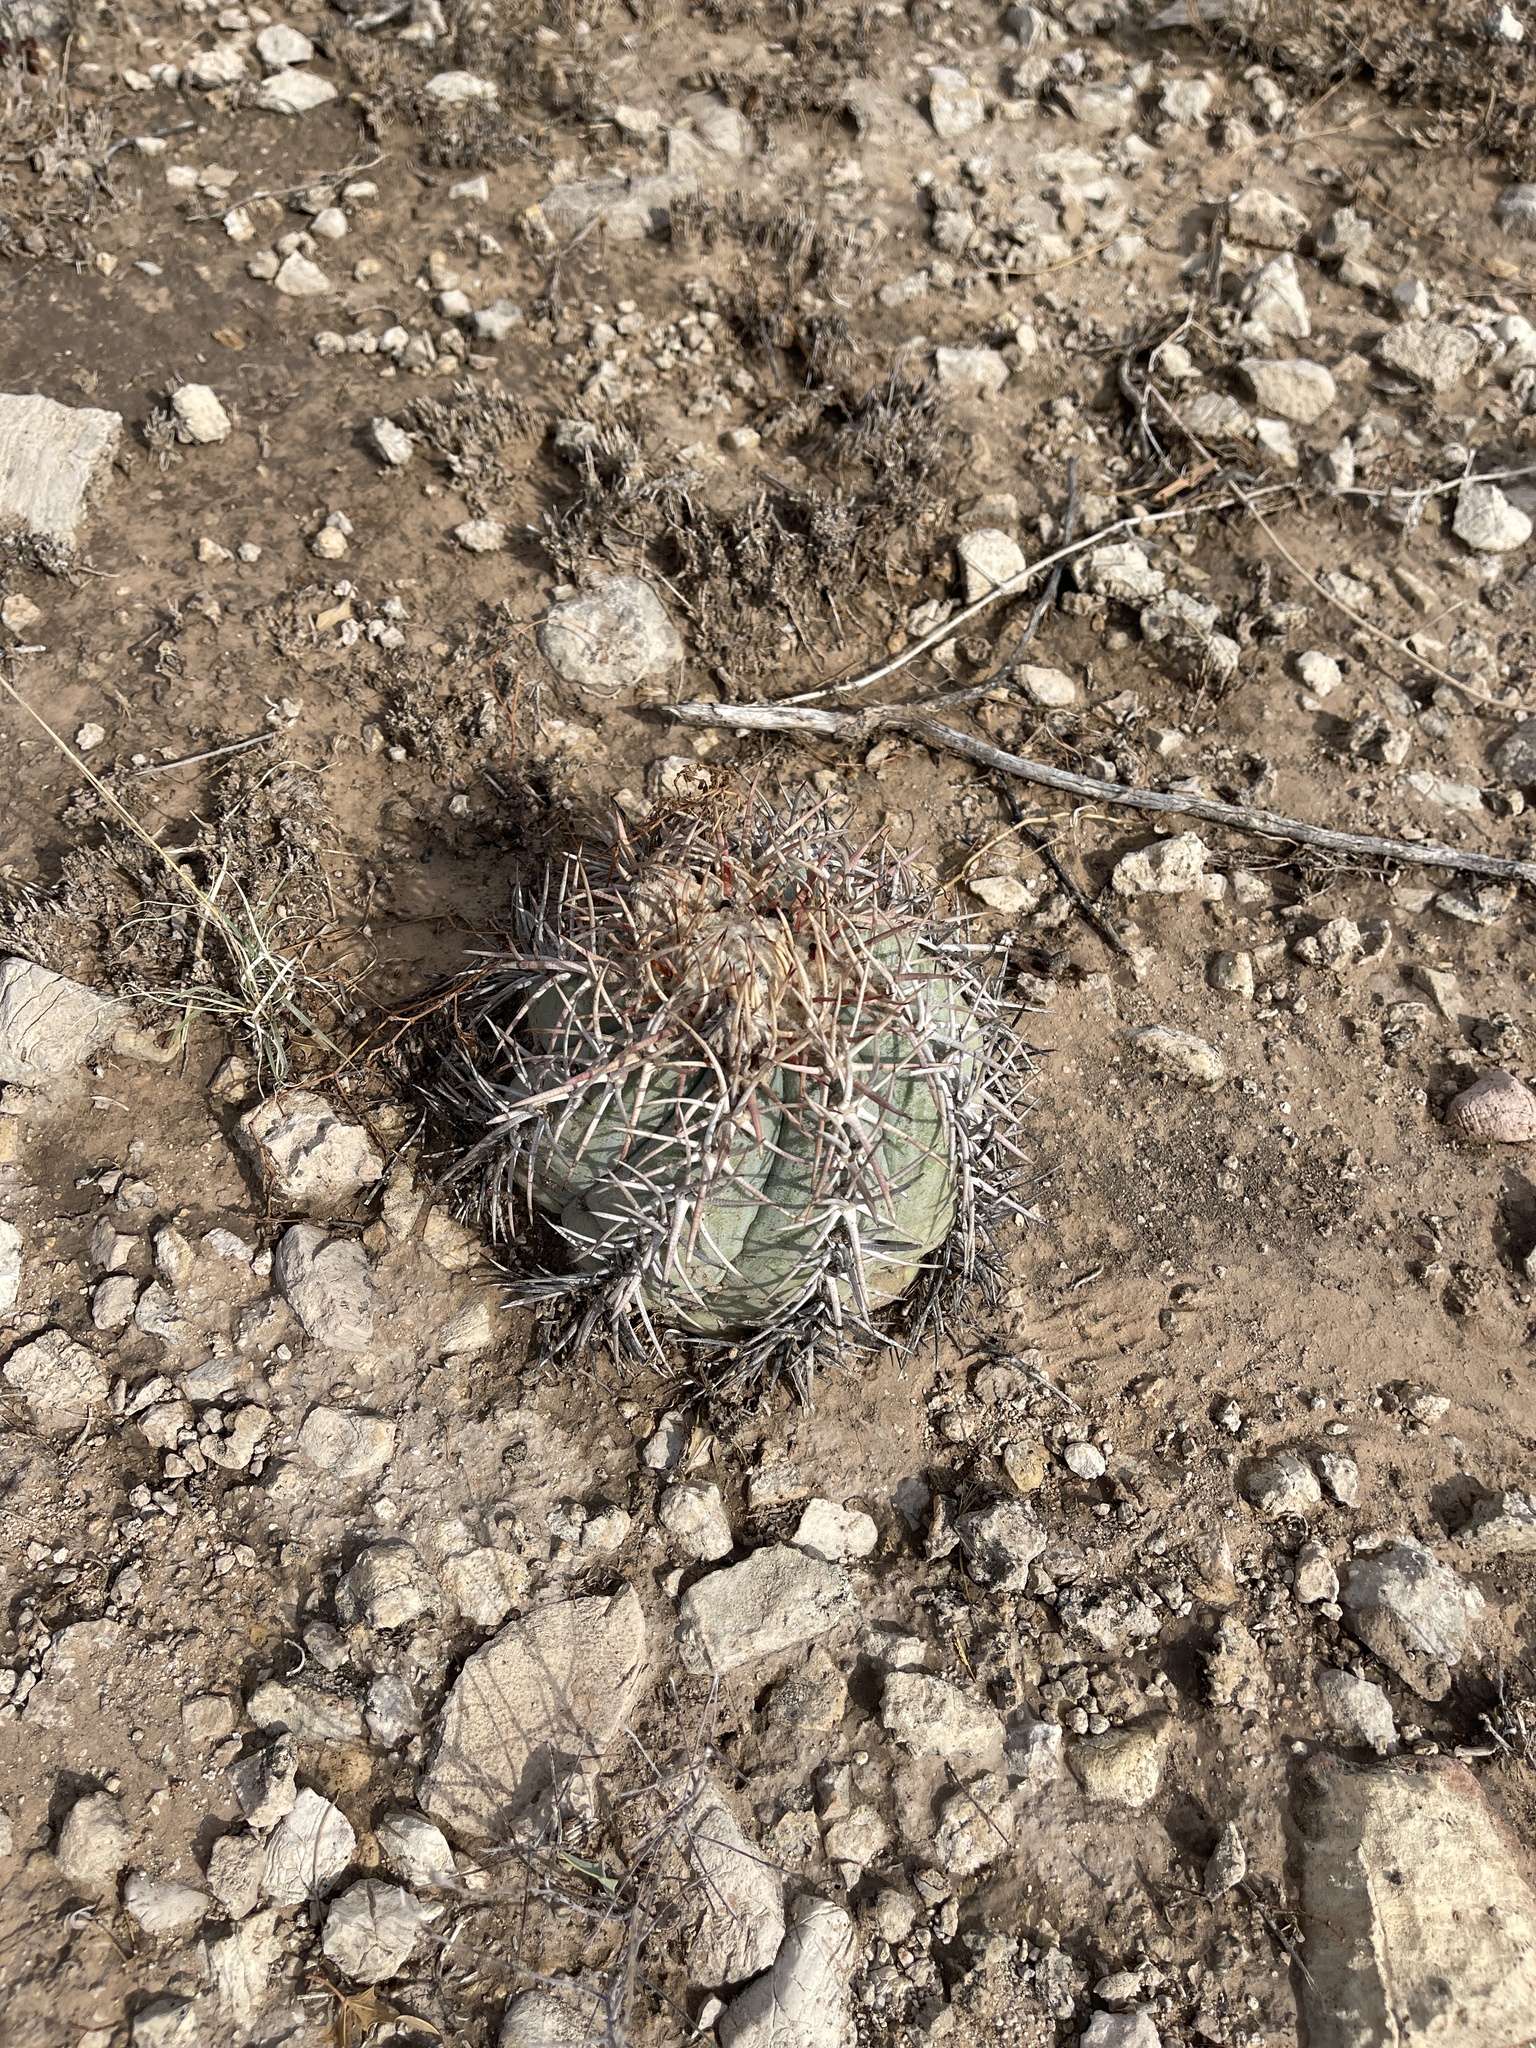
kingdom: Plantae
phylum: Tracheophyta
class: Magnoliopsida
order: Caryophyllales
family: Cactaceae
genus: Echinocactus
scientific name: Echinocactus horizonthalonius
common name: Devilshead
